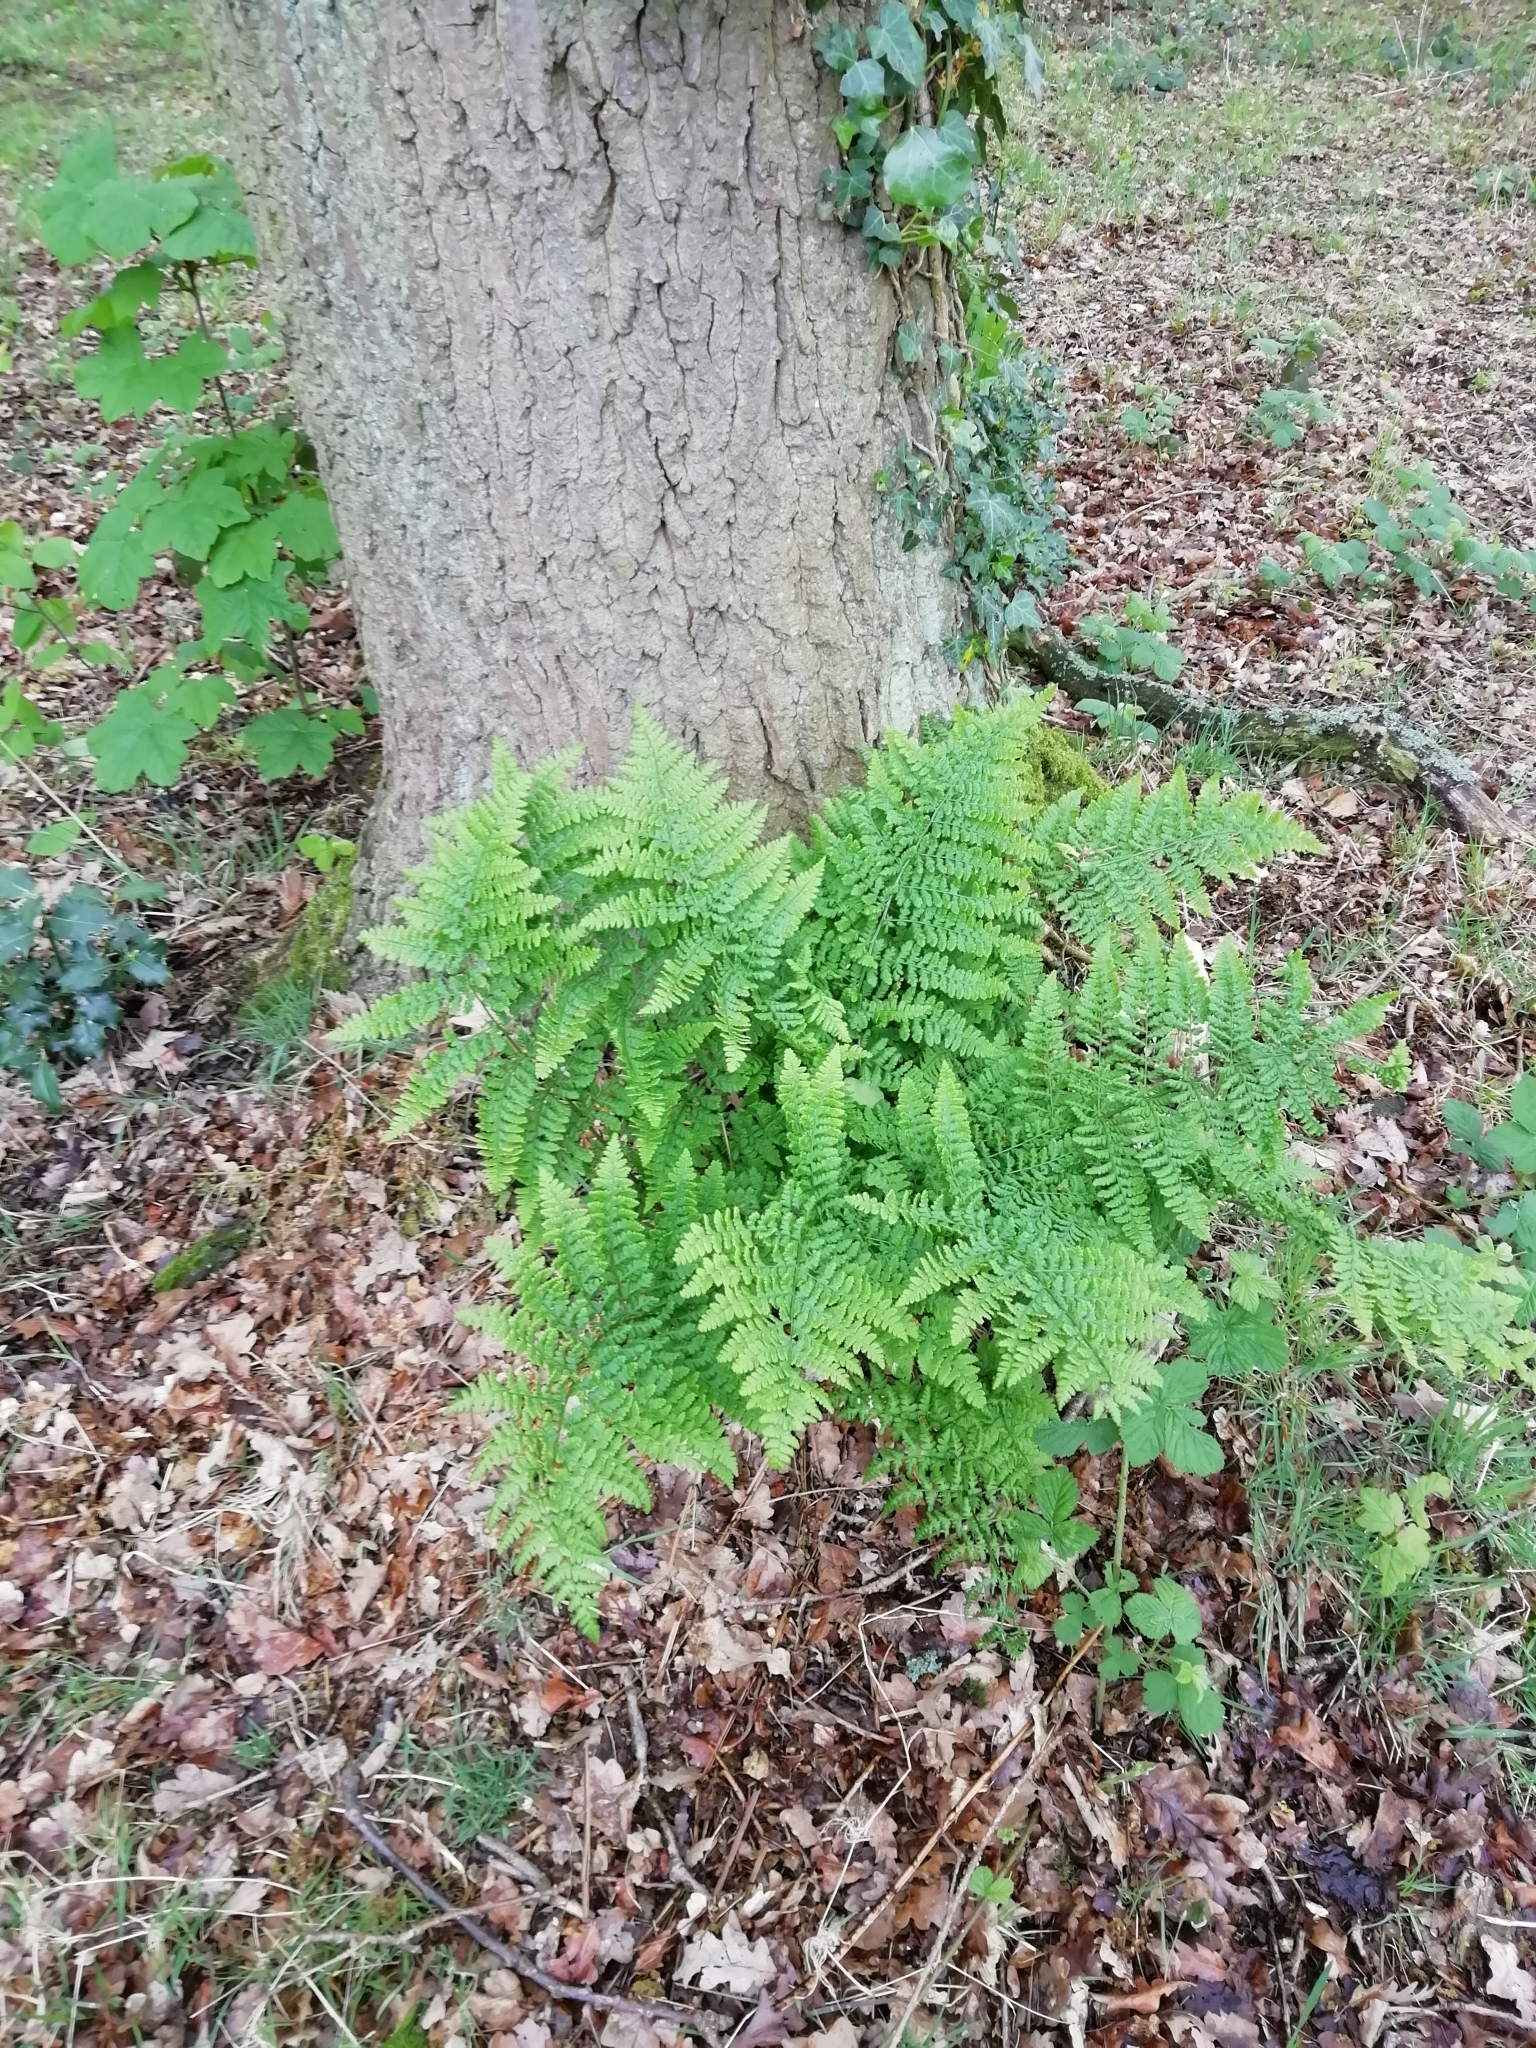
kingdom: Plantae
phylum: Tracheophyta
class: Polypodiopsida
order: Polypodiales
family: Athyriaceae
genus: Athyrium
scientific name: Athyrium filix-femina
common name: Lady fern
